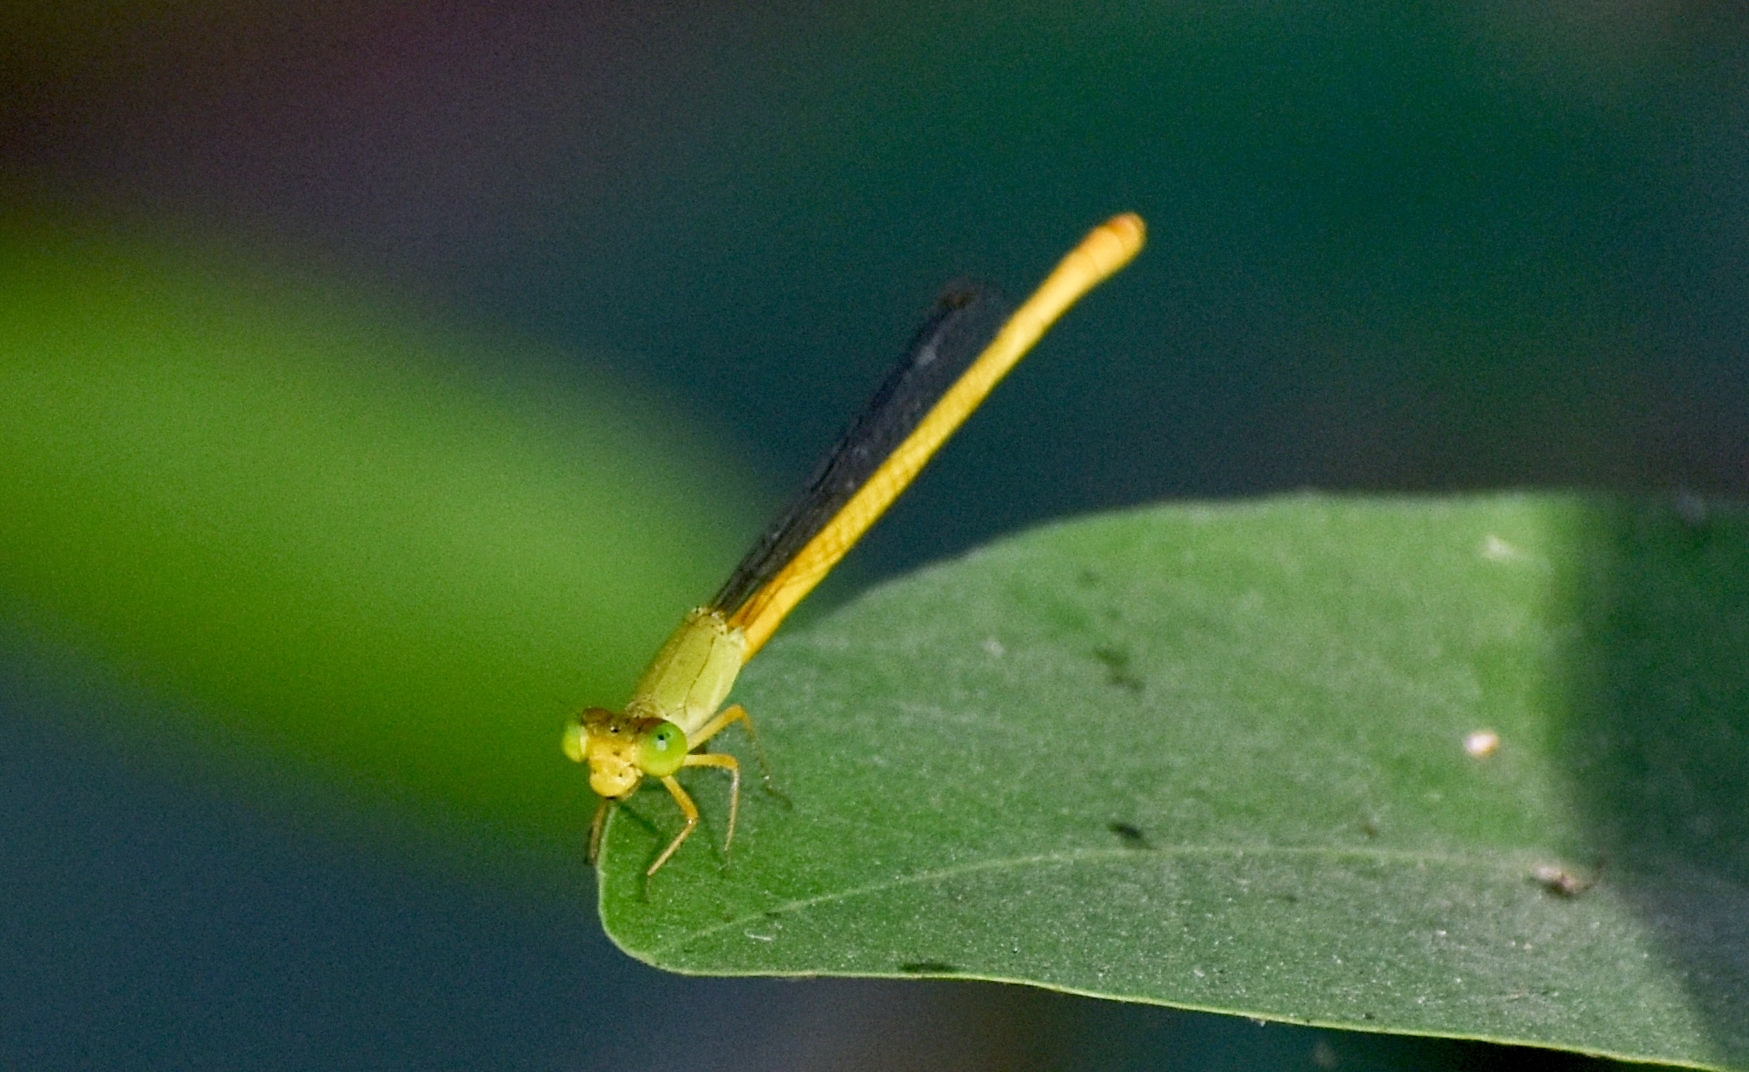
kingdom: Animalia
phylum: Arthropoda
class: Insecta
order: Odonata
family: Coenagrionidae
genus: Ceriagrion
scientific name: Ceriagrion coromandelianum
